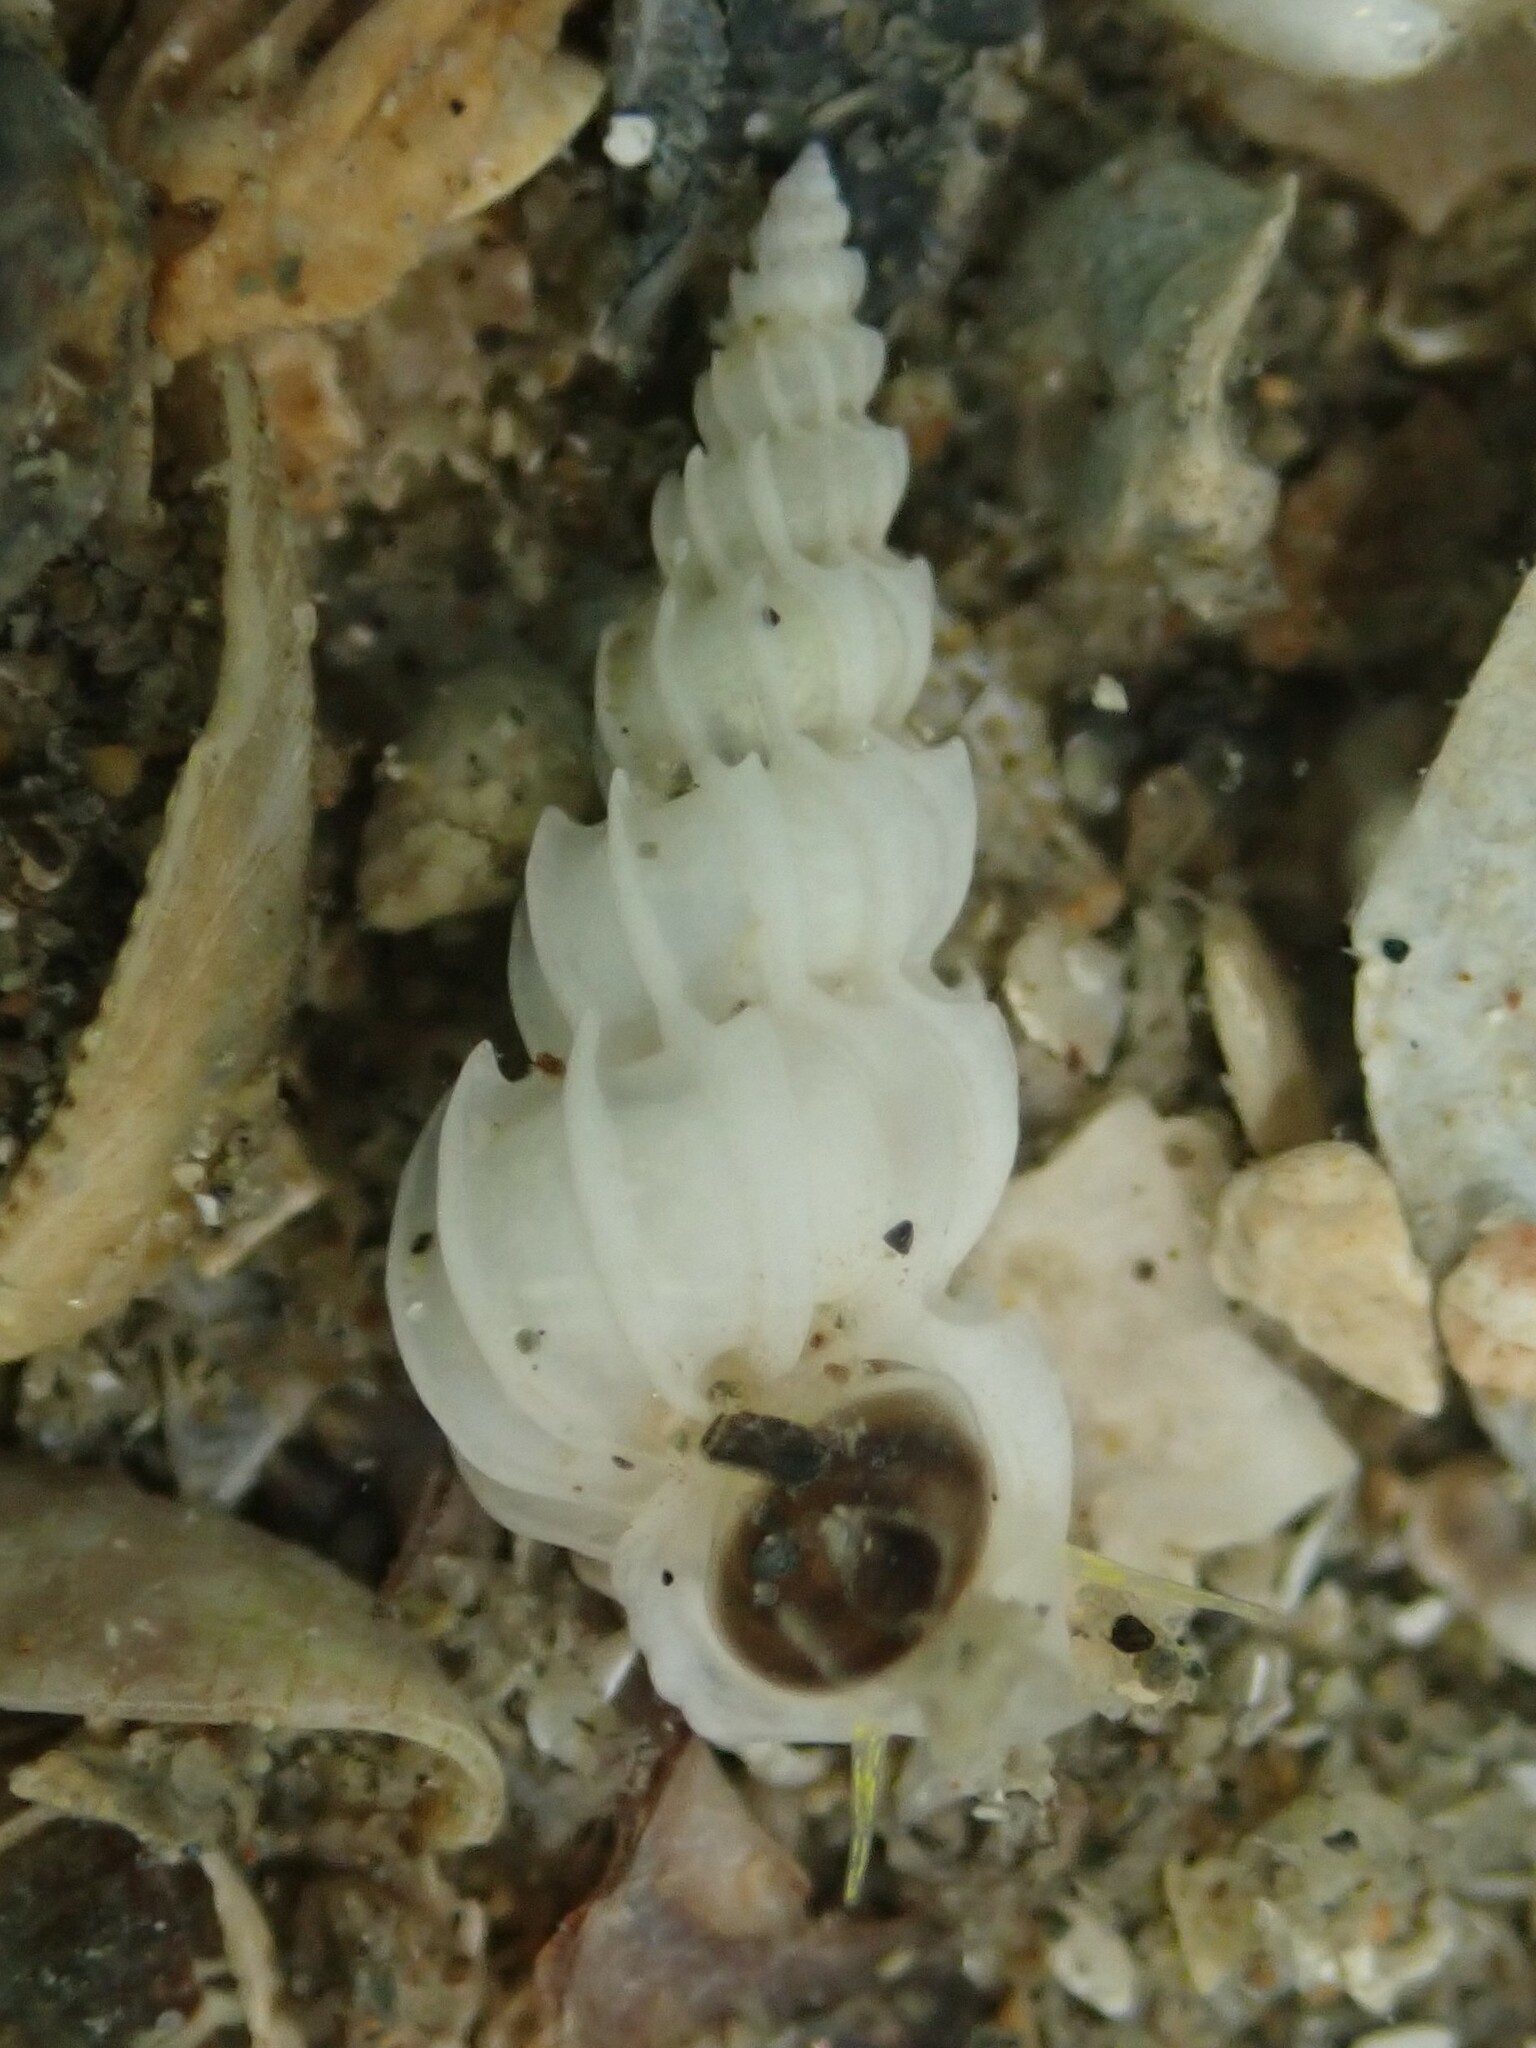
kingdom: Animalia
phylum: Mollusca
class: Gastropoda
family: Epitoniidae
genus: Epitonium
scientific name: Epitonium minorum
